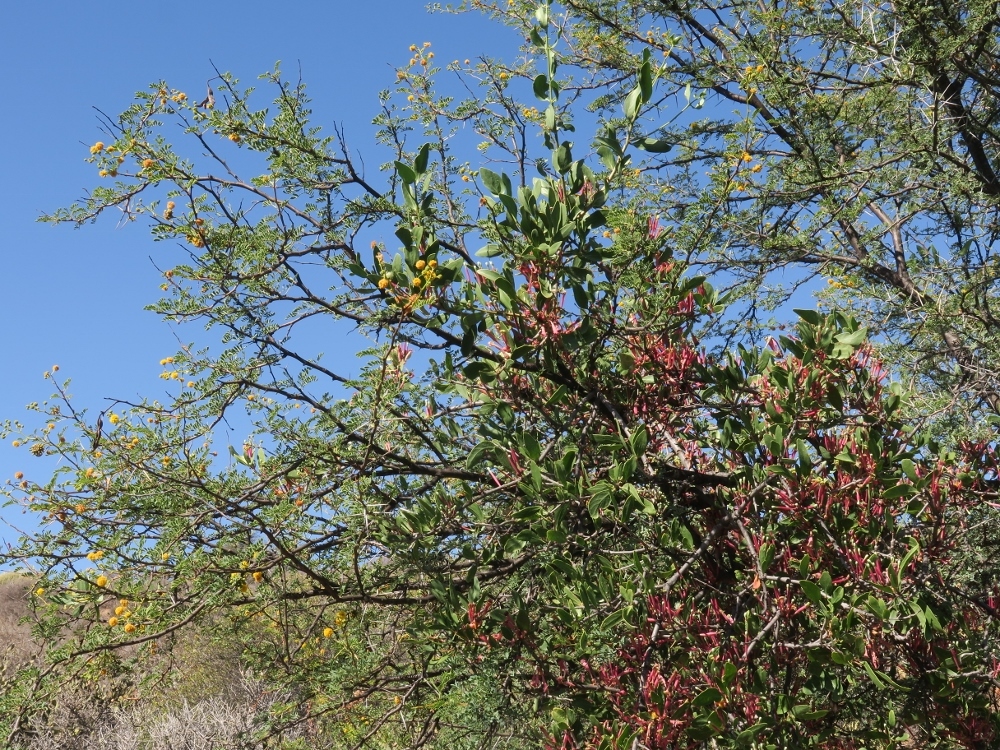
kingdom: Plantae
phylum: Tracheophyta
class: Magnoliopsida
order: Fabales
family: Fabaceae
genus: Vachellia
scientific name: Vachellia karroo
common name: Sweet thorn
